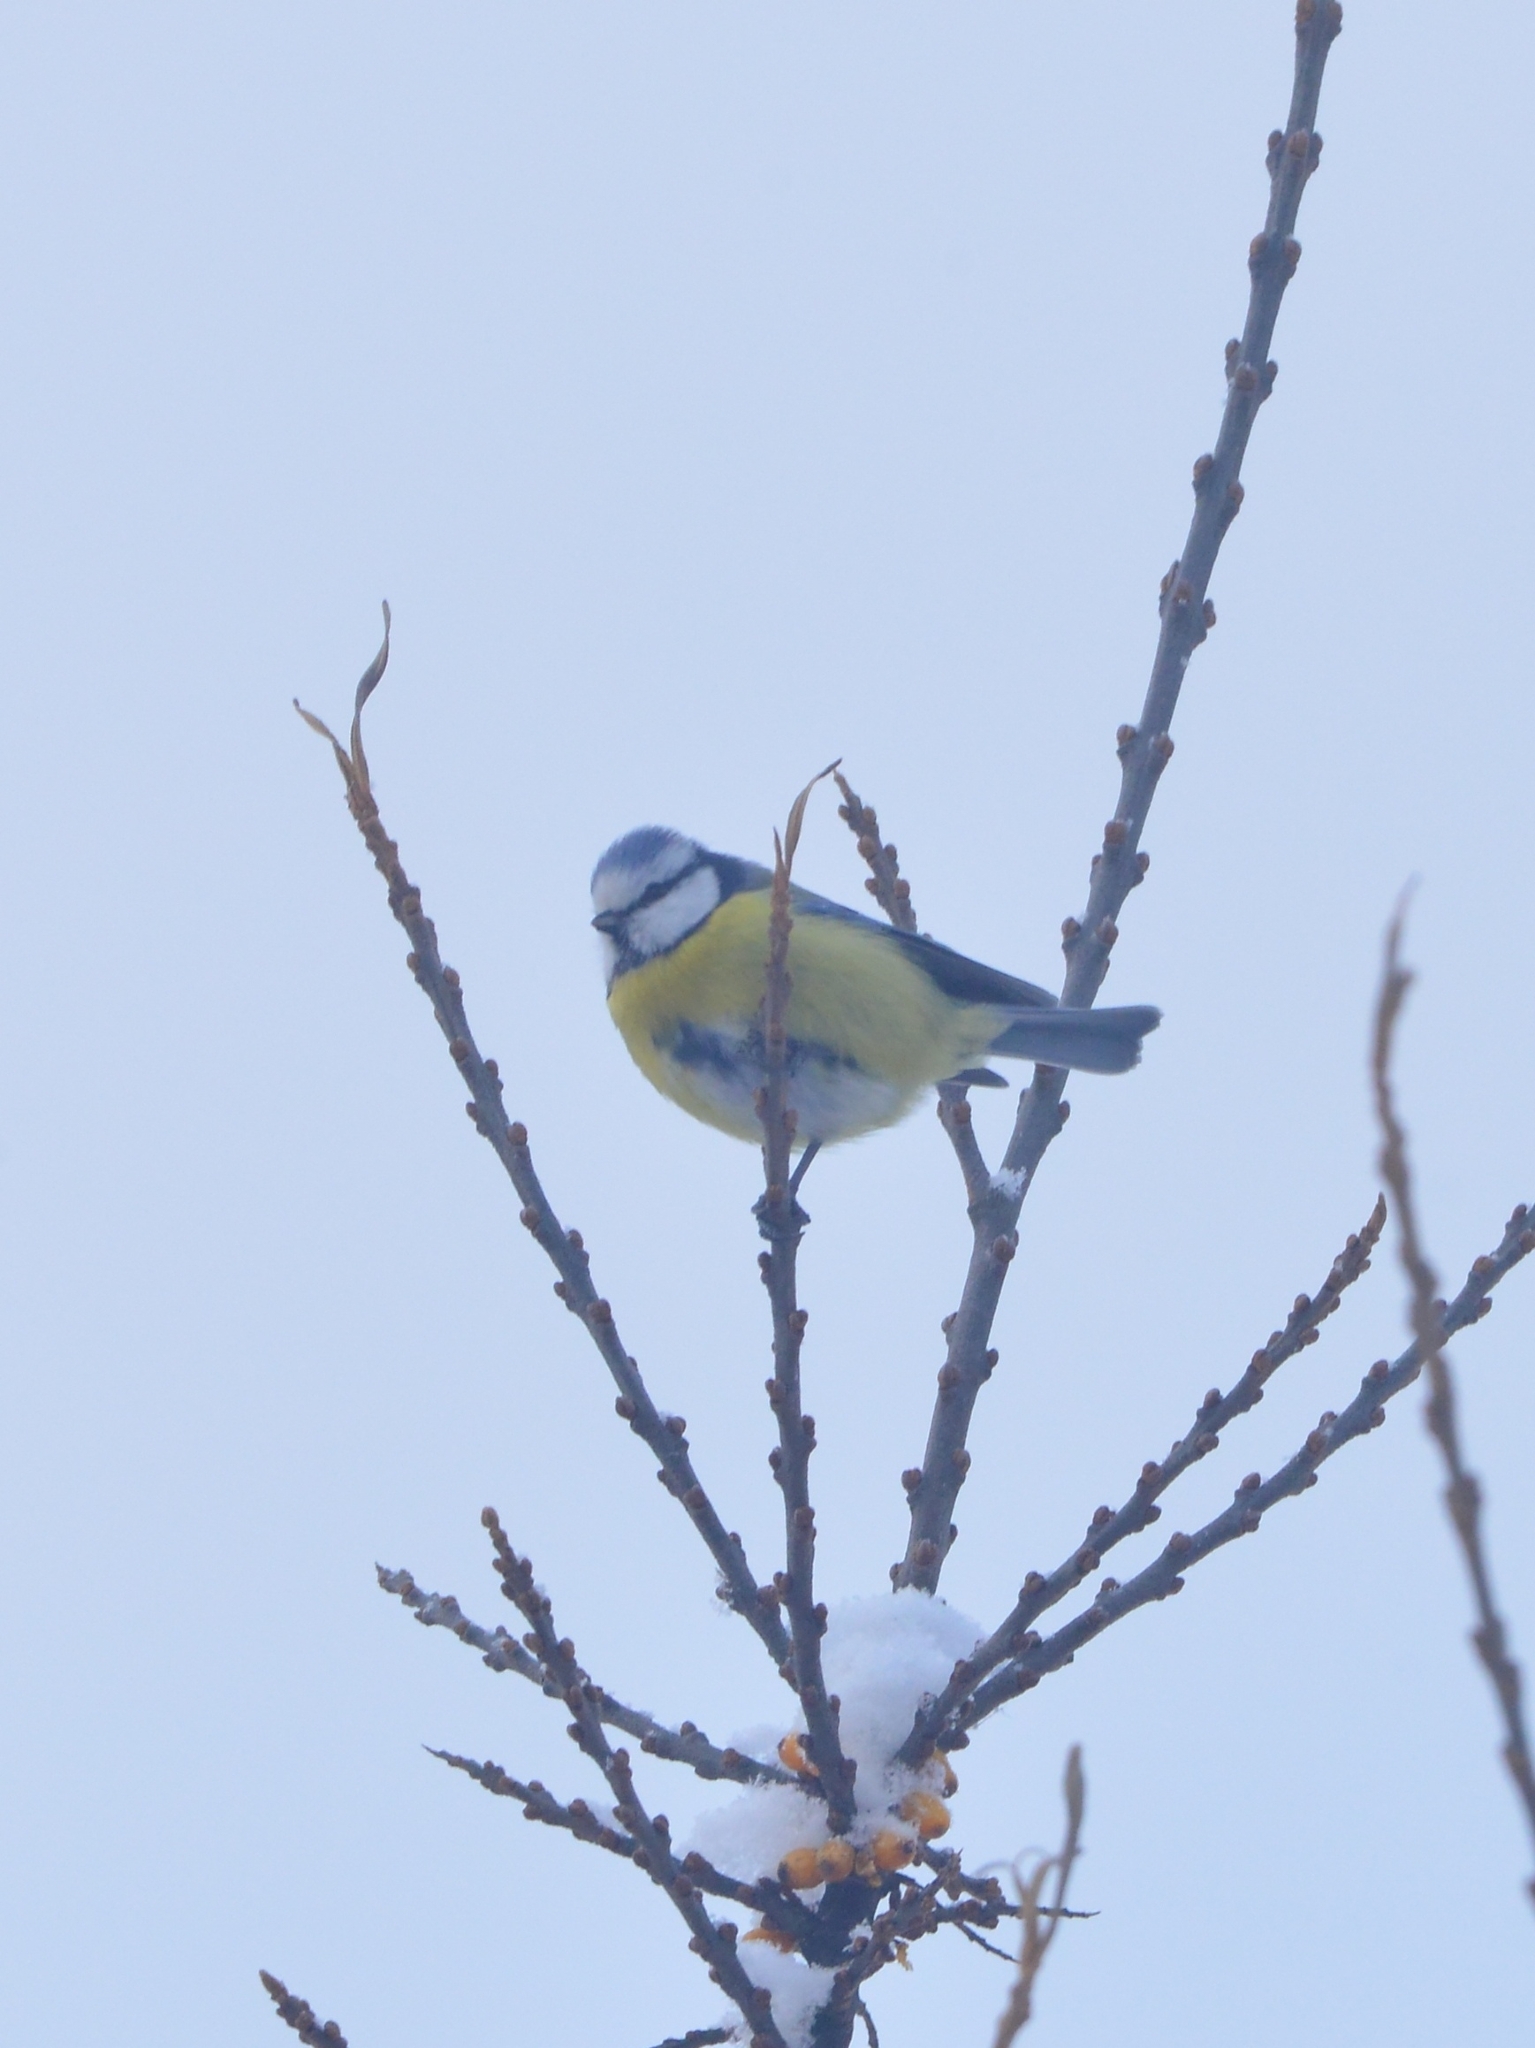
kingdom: Animalia
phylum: Chordata
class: Aves
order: Passeriformes
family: Paridae
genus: Cyanistes
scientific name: Cyanistes caeruleus
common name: Eurasian blue tit
